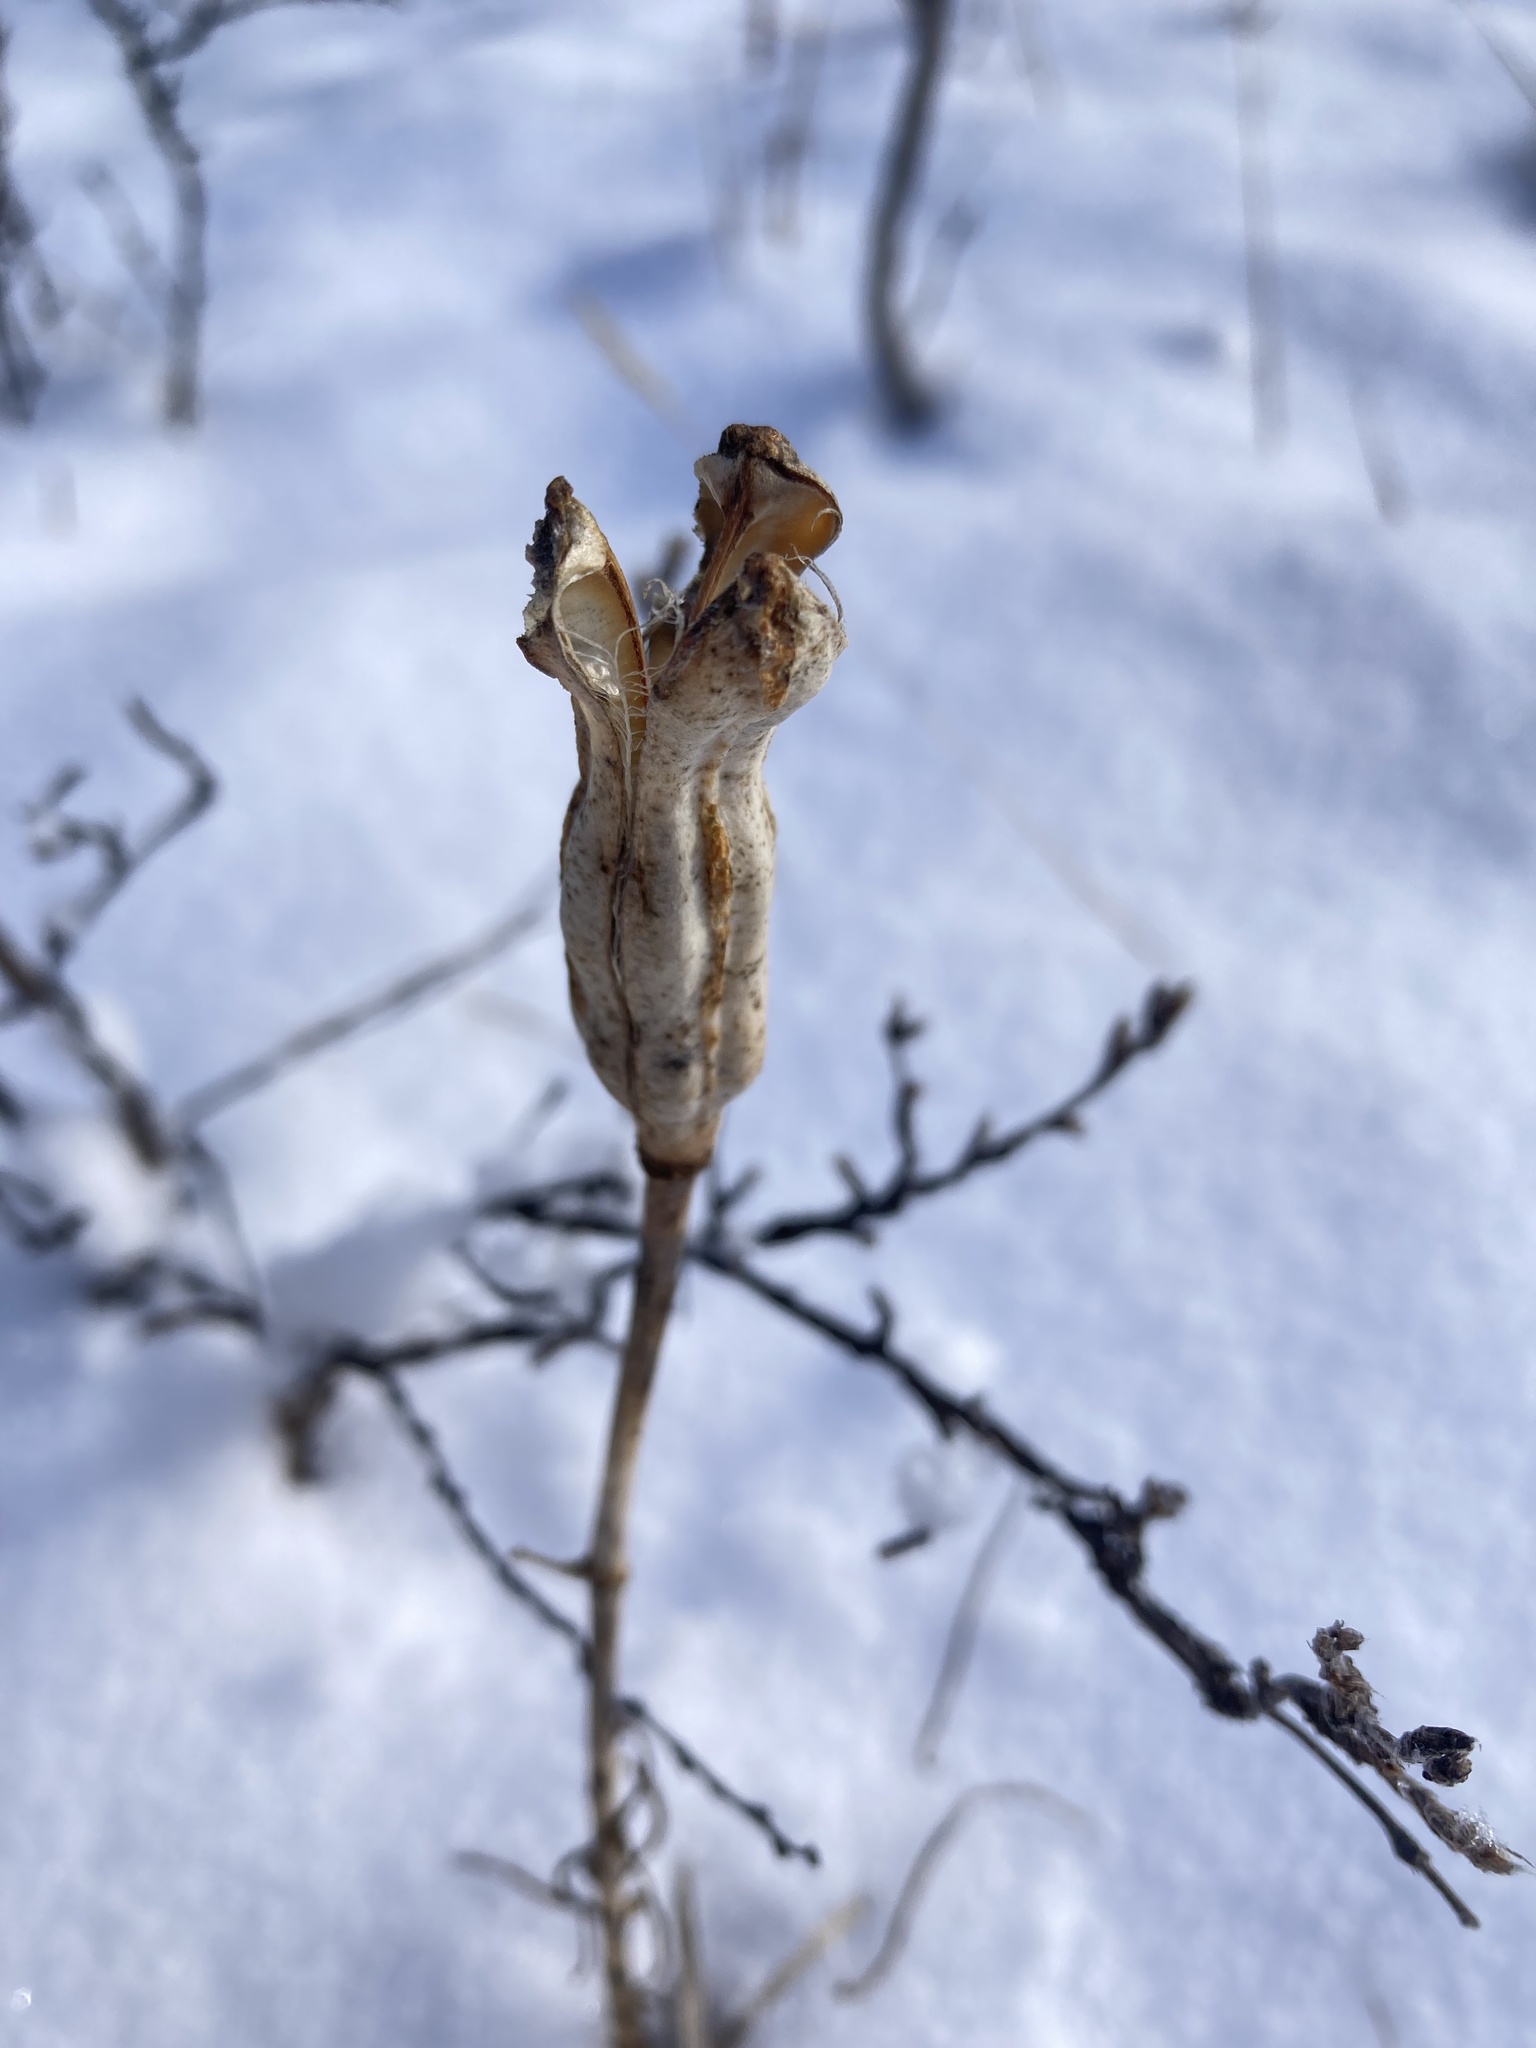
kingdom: Plantae
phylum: Tracheophyta
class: Liliopsida
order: Liliales
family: Liliaceae
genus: Lilium
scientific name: Lilium philadelphicum
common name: Red lily
